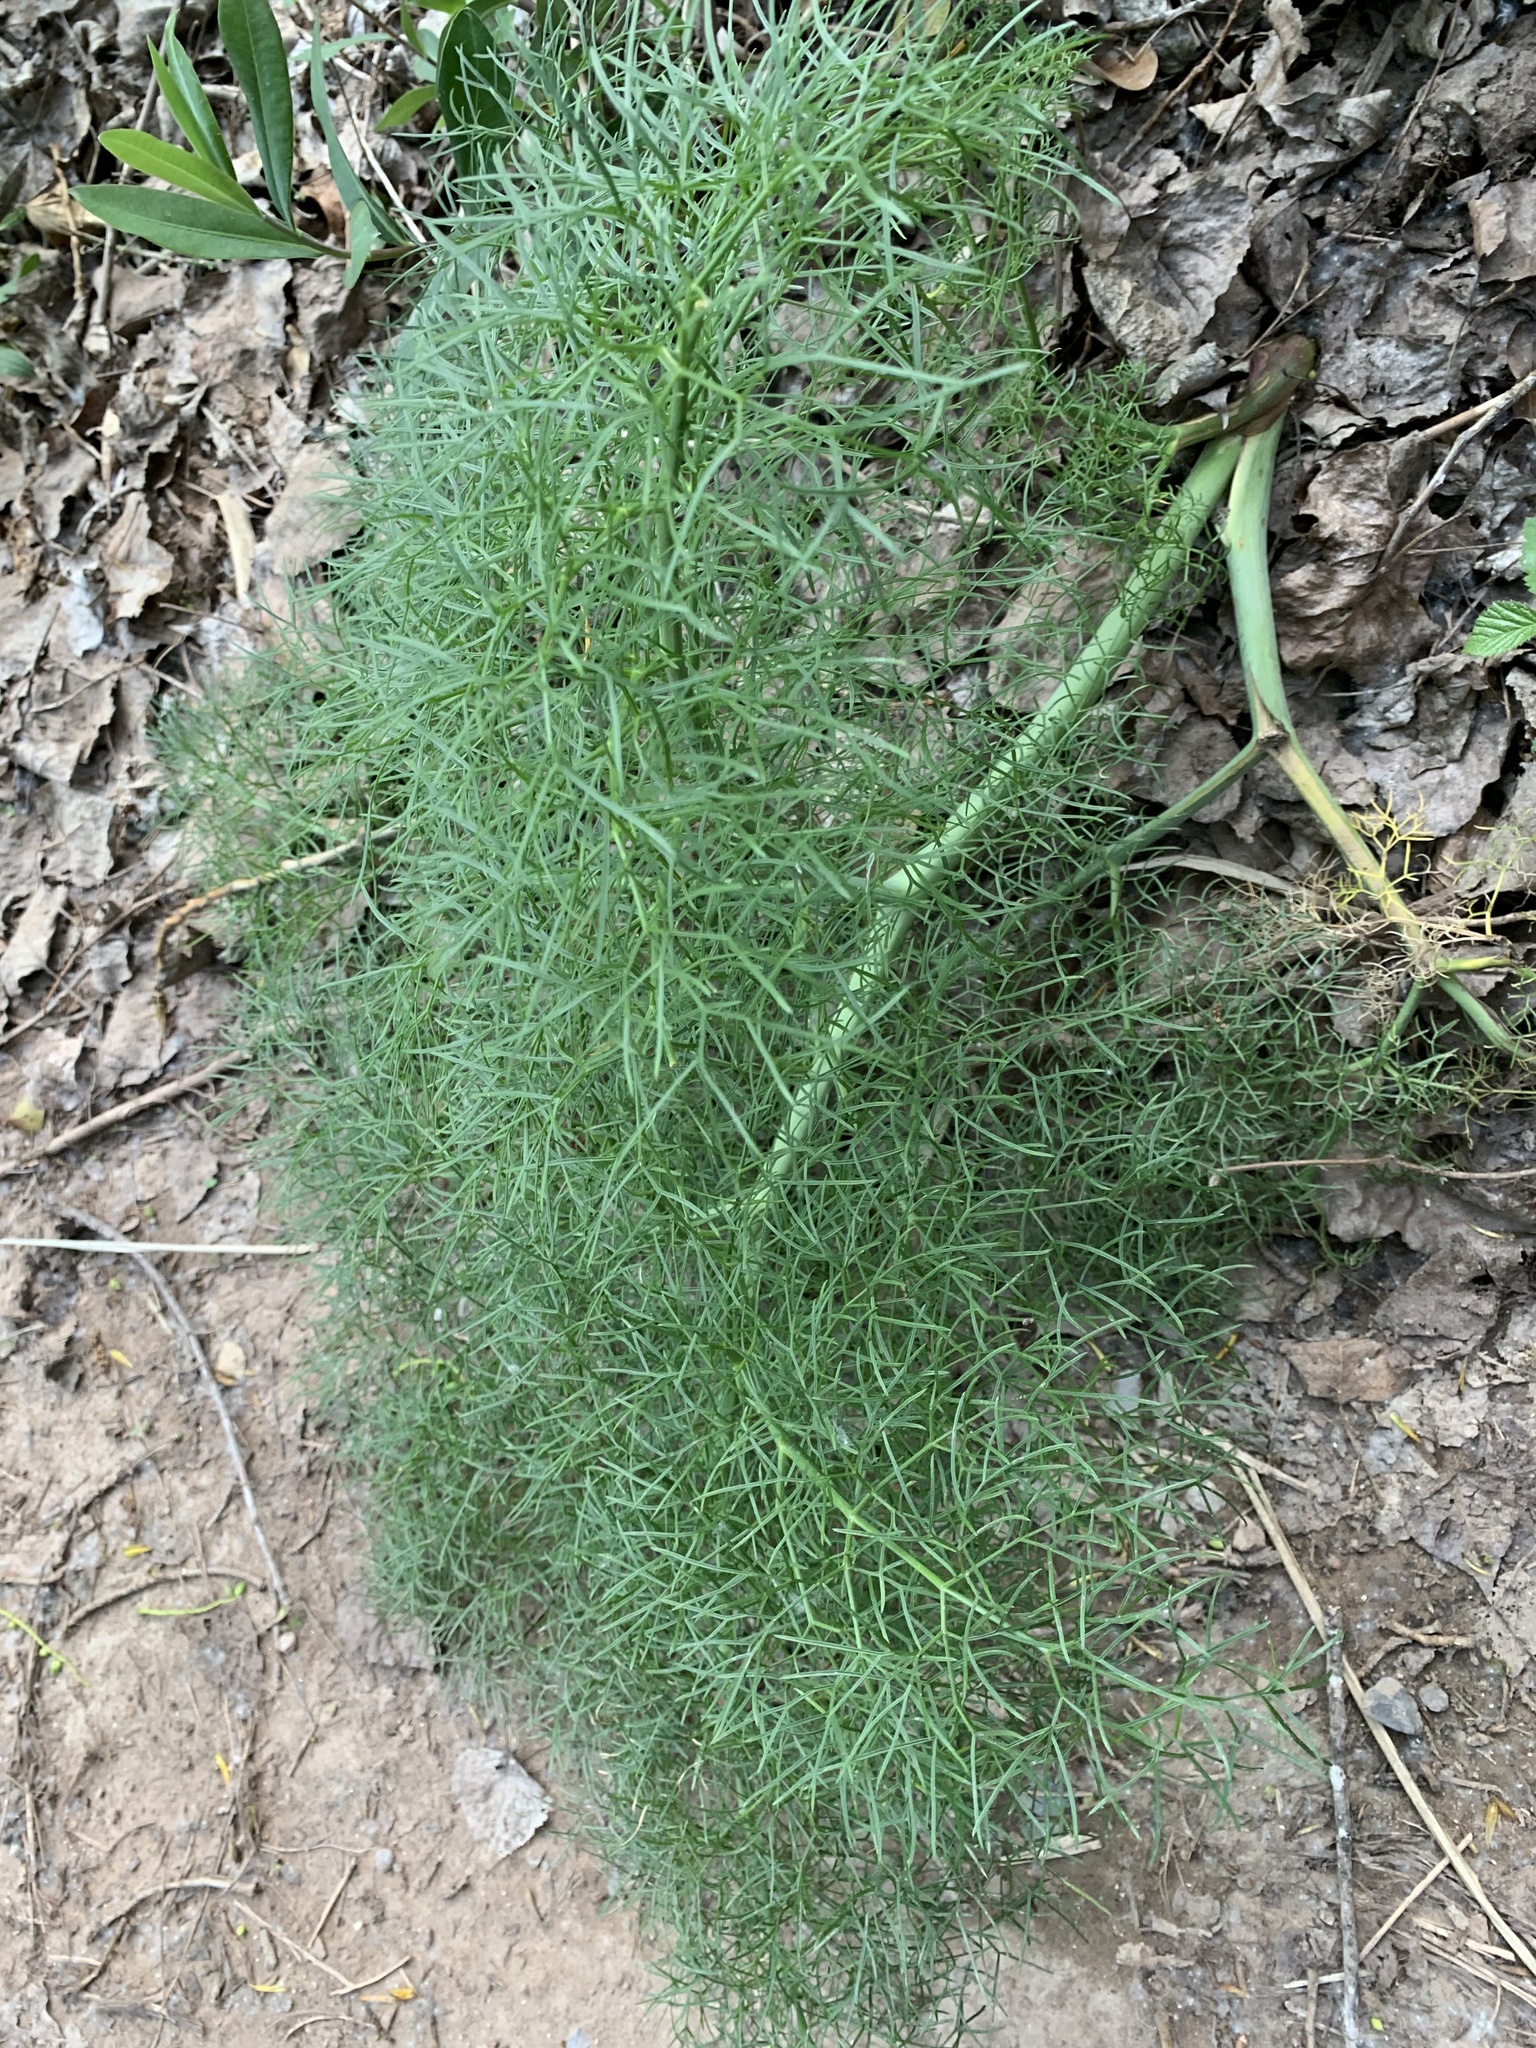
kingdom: Plantae
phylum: Tracheophyta
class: Magnoliopsida
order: Apiales
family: Apiaceae
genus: Ferula
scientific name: Ferula communis
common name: Giant fennel
